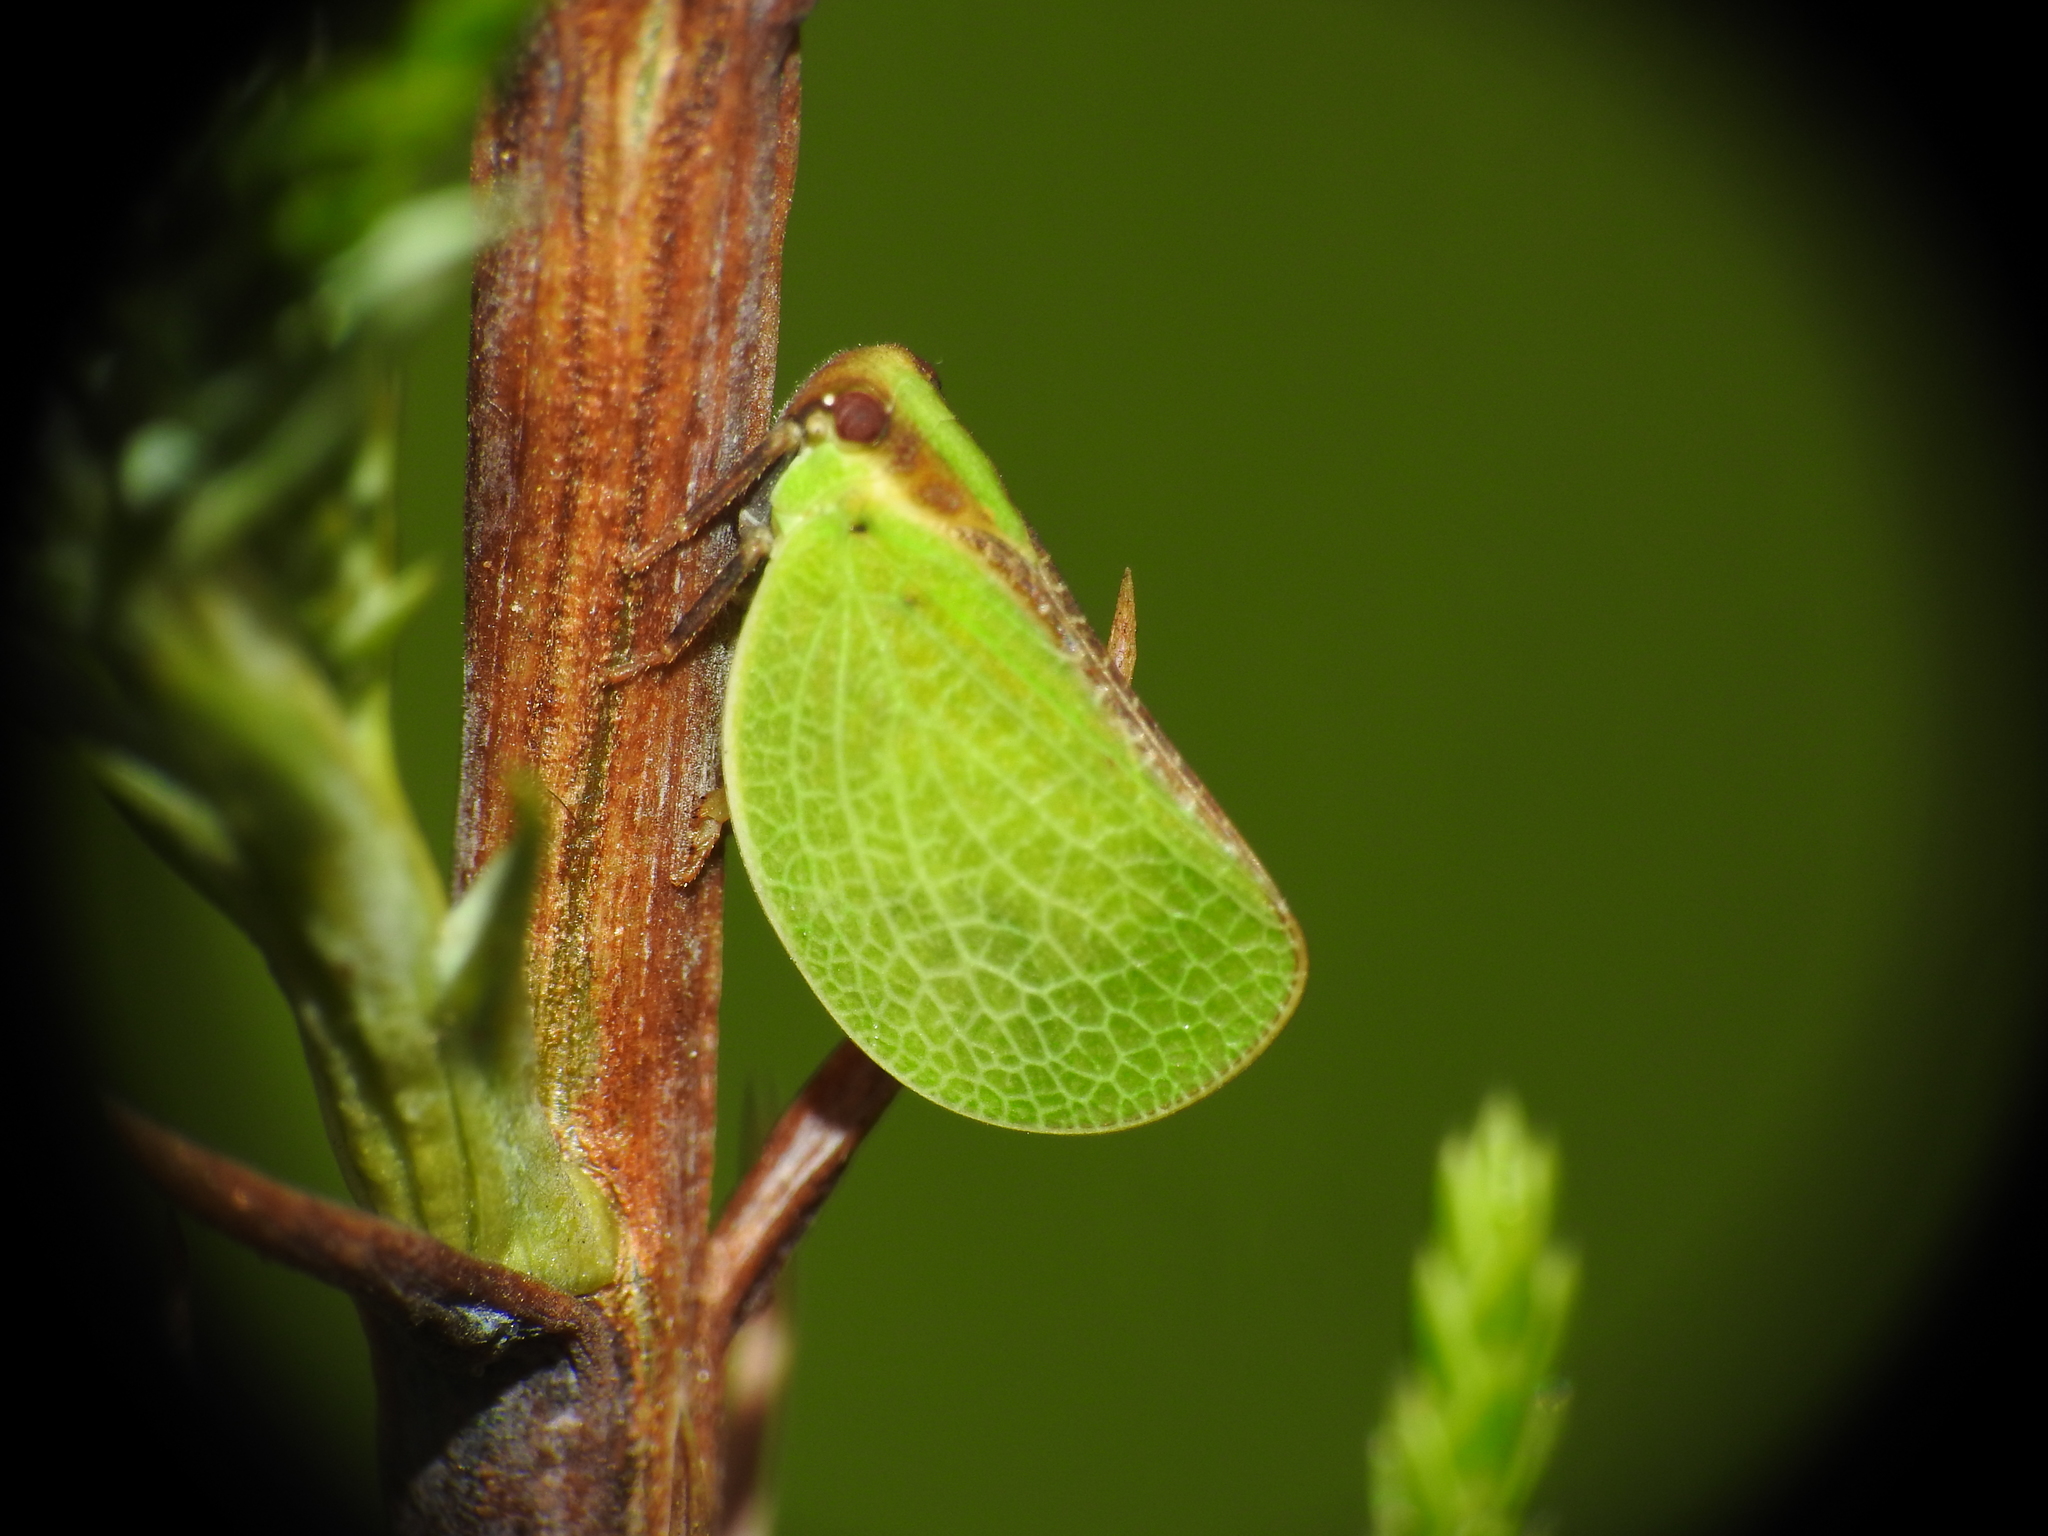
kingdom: Animalia
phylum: Arthropoda
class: Insecta
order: Hemiptera
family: Acanaloniidae
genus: Acanalonia
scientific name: Acanalonia bivittata
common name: Two-striped planthopper
